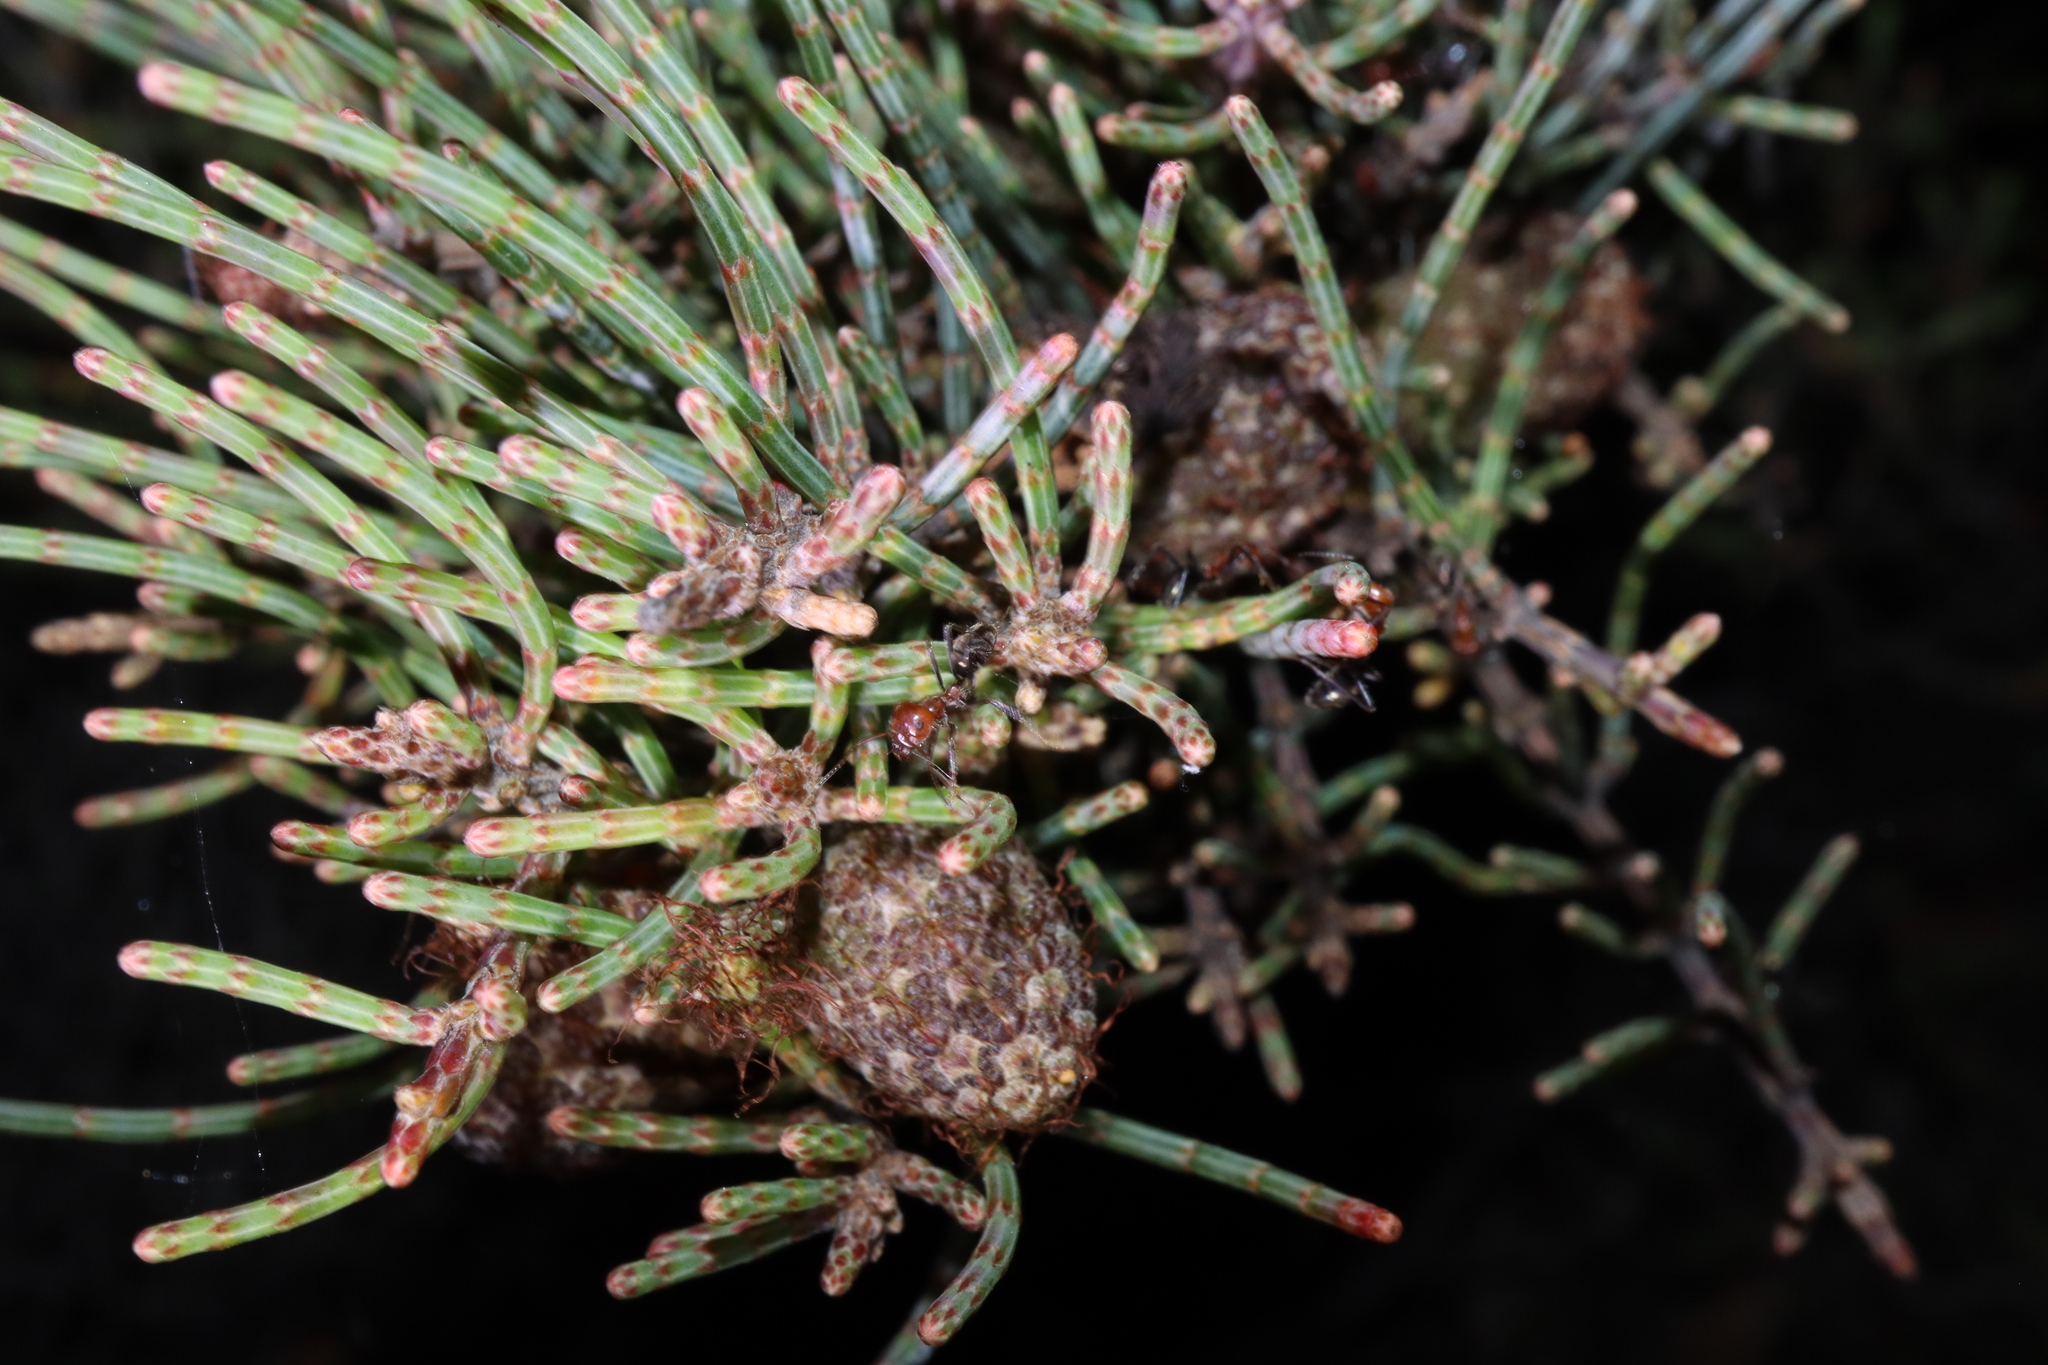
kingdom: Plantae
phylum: Tracheophyta
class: Magnoliopsida
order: Fagales
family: Casuarinaceae
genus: Allocasuarina
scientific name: Allocasuarina humilis
